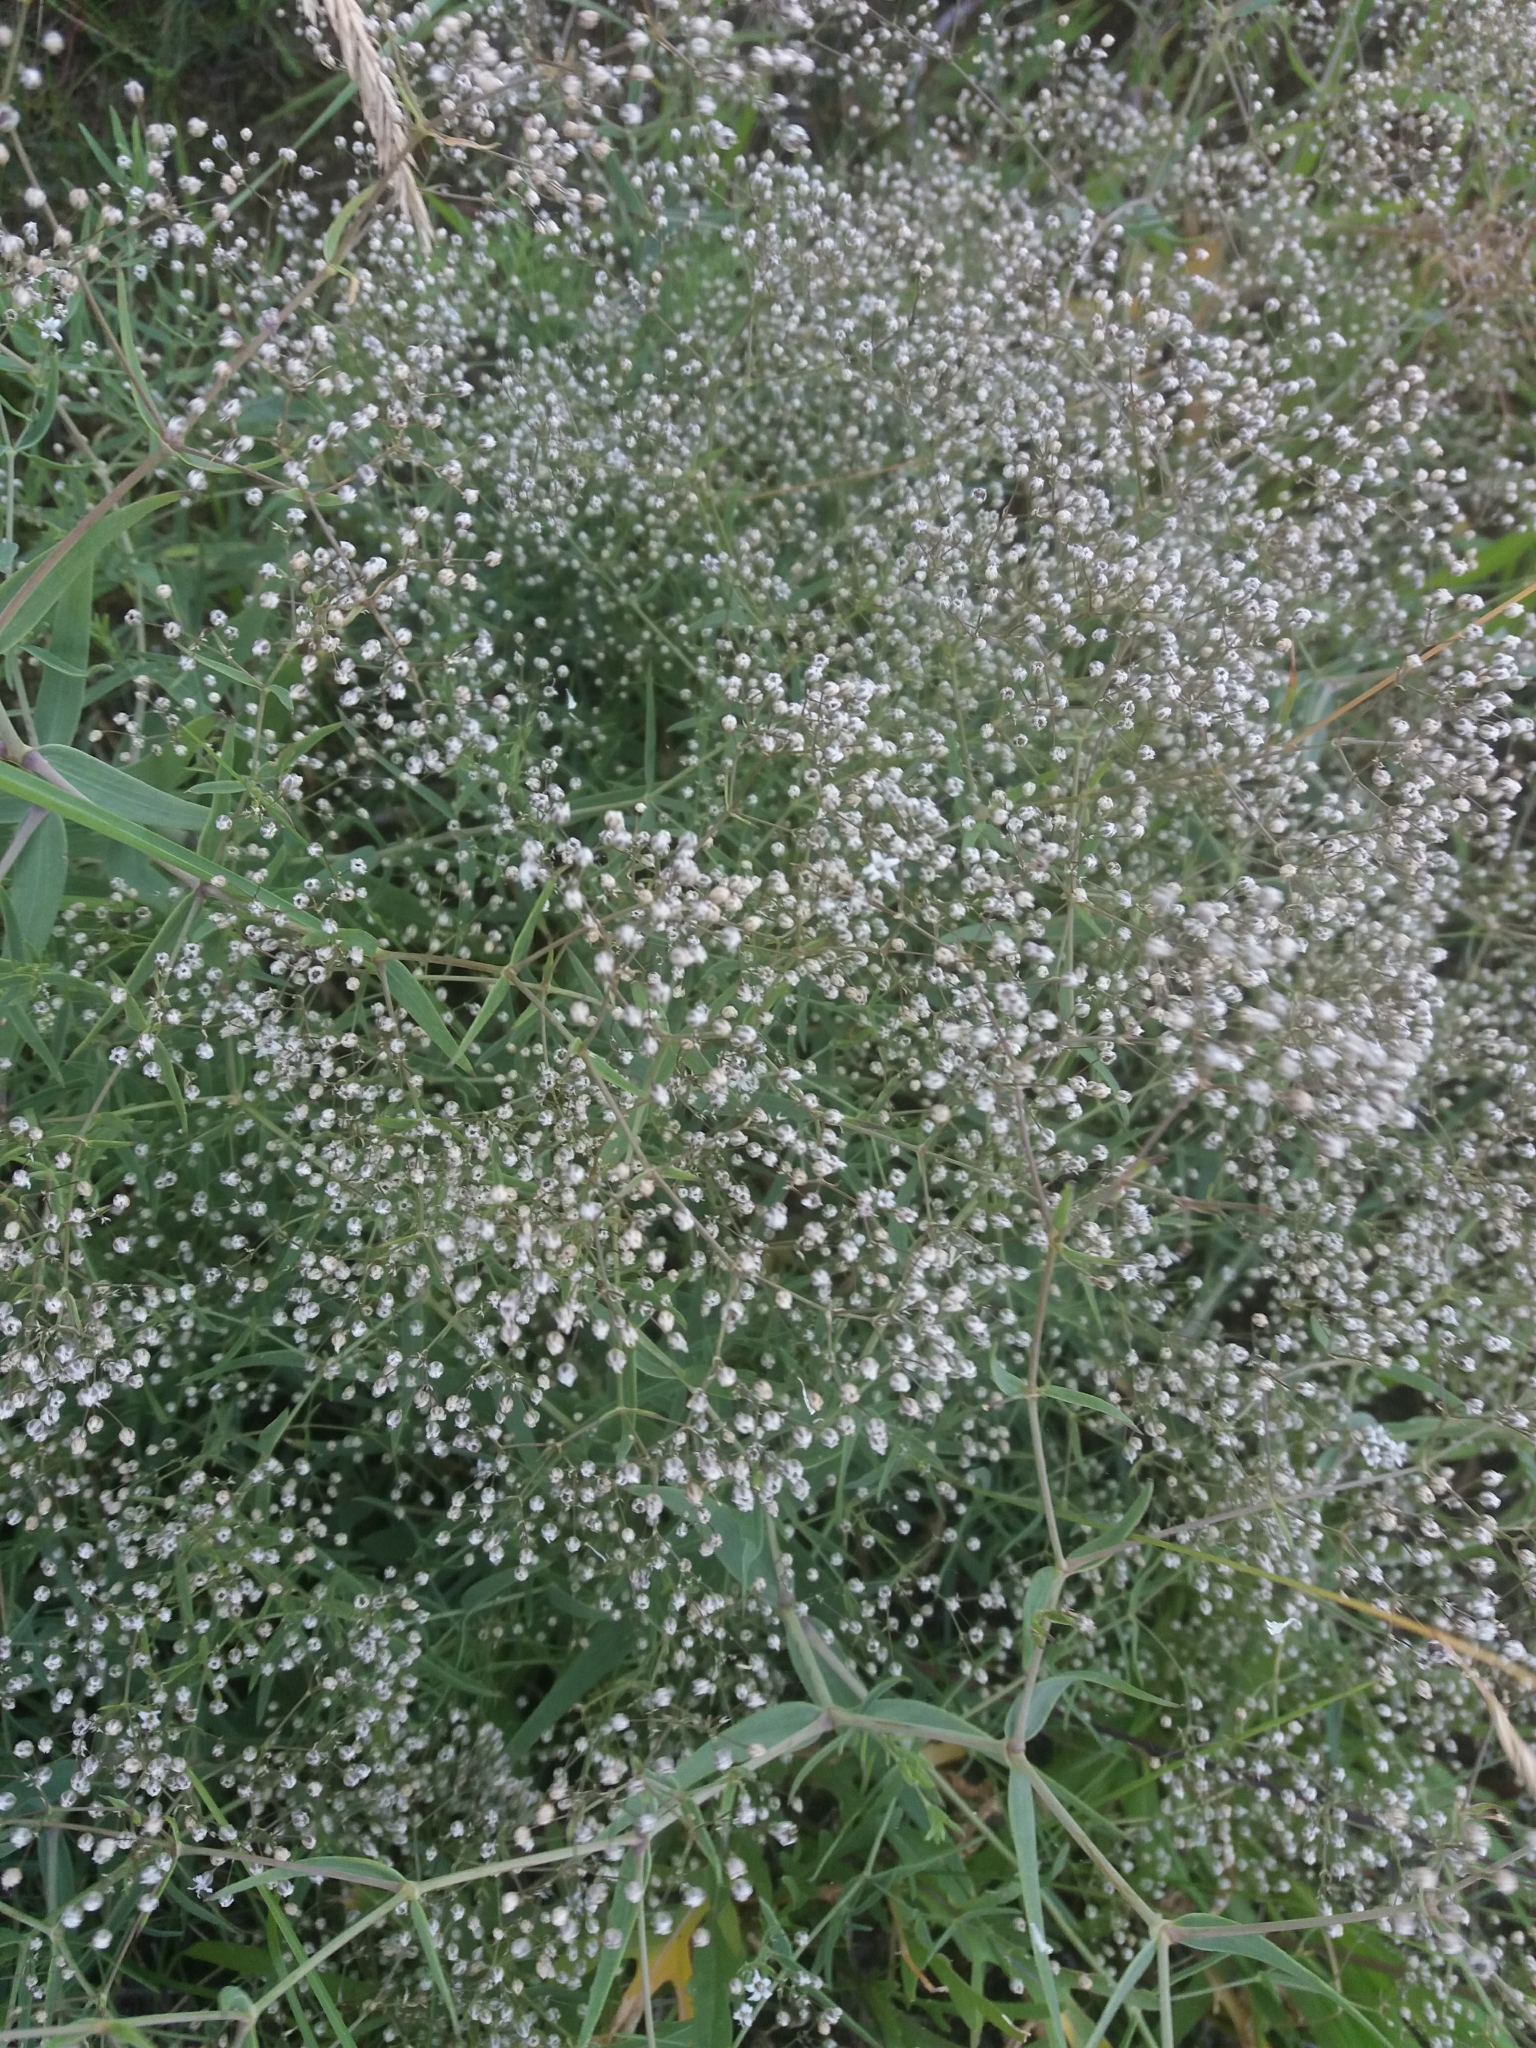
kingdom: Plantae
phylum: Tracheophyta
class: Magnoliopsida
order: Caryophyllales
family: Caryophyllaceae
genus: Gypsophila
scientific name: Gypsophila paniculata
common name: Baby's-breath
